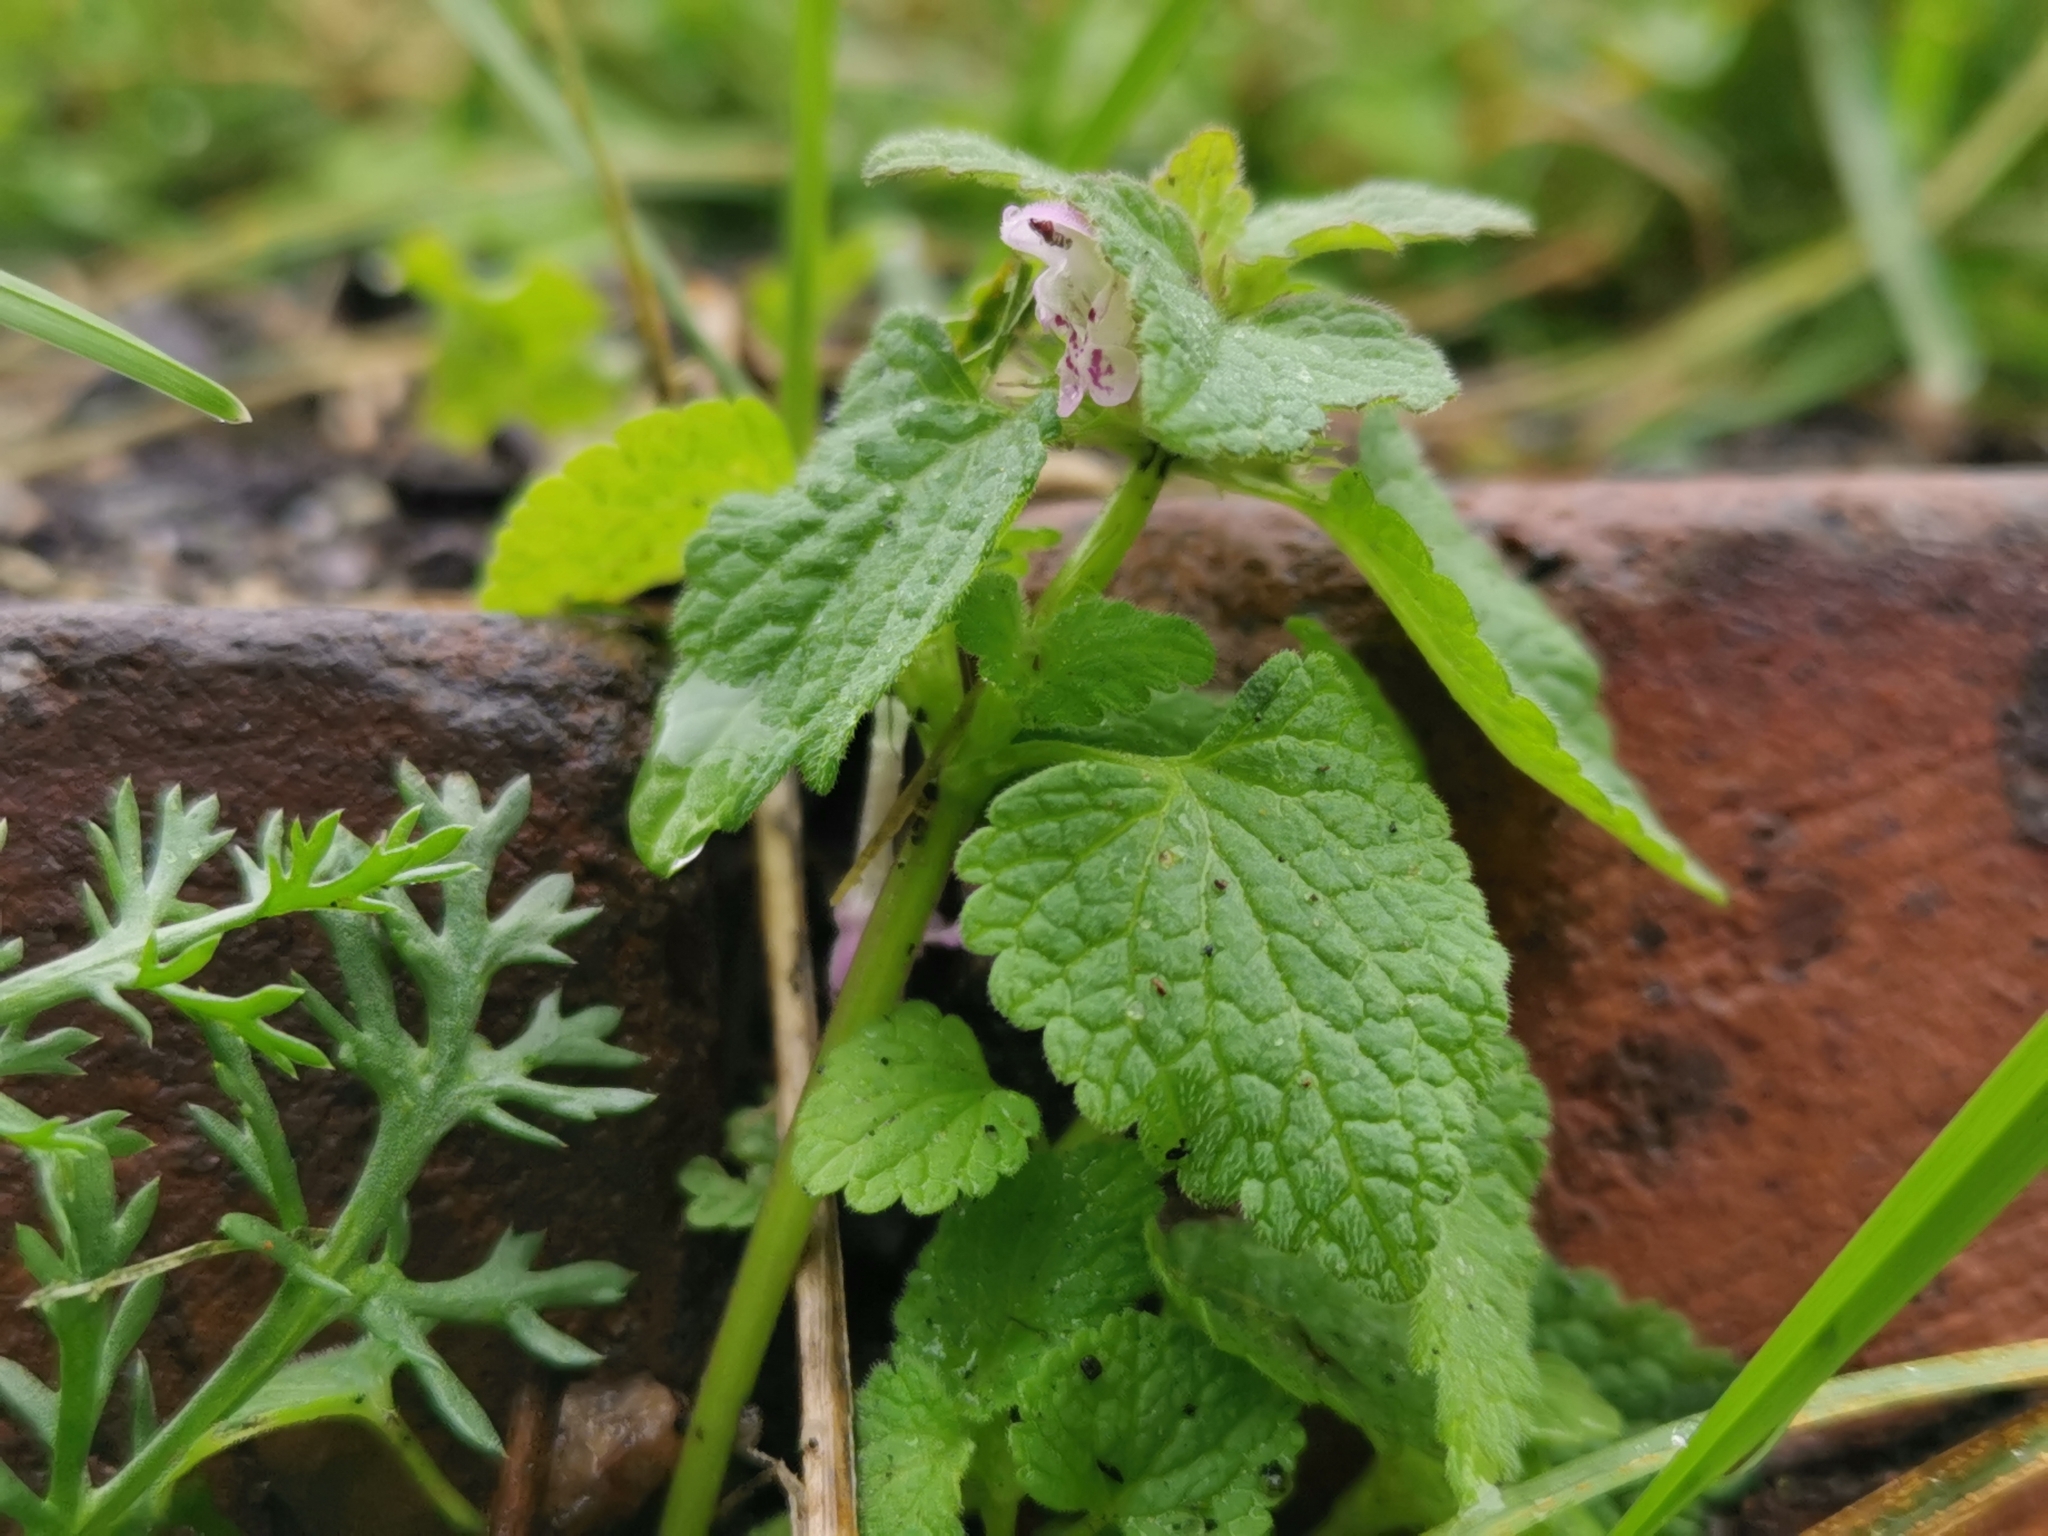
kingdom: Plantae
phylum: Tracheophyta
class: Magnoliopsida
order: Lamiales
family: Lamiaceae
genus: Lamium
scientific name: Lamium purpureum
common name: Red dead-nettle
